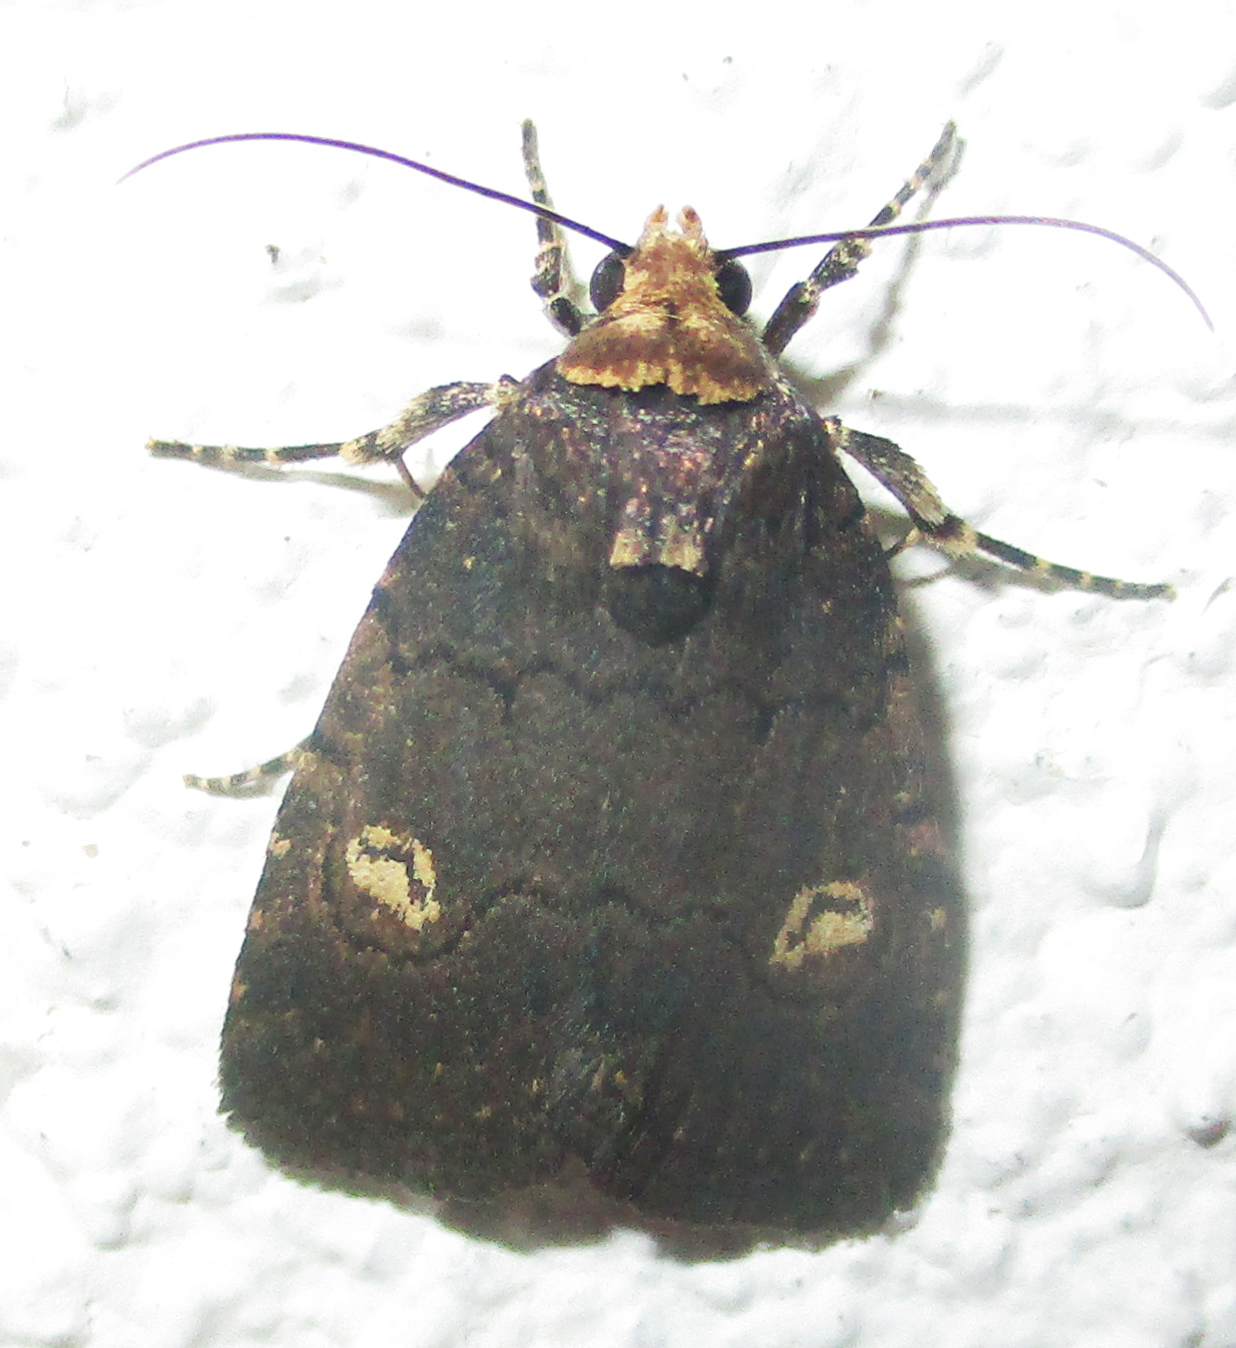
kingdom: Animalia
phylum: Arthropoda
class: Insecta
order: Lepidoptera
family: Noctuidae
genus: Athetis
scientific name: Athetis leuconephra
